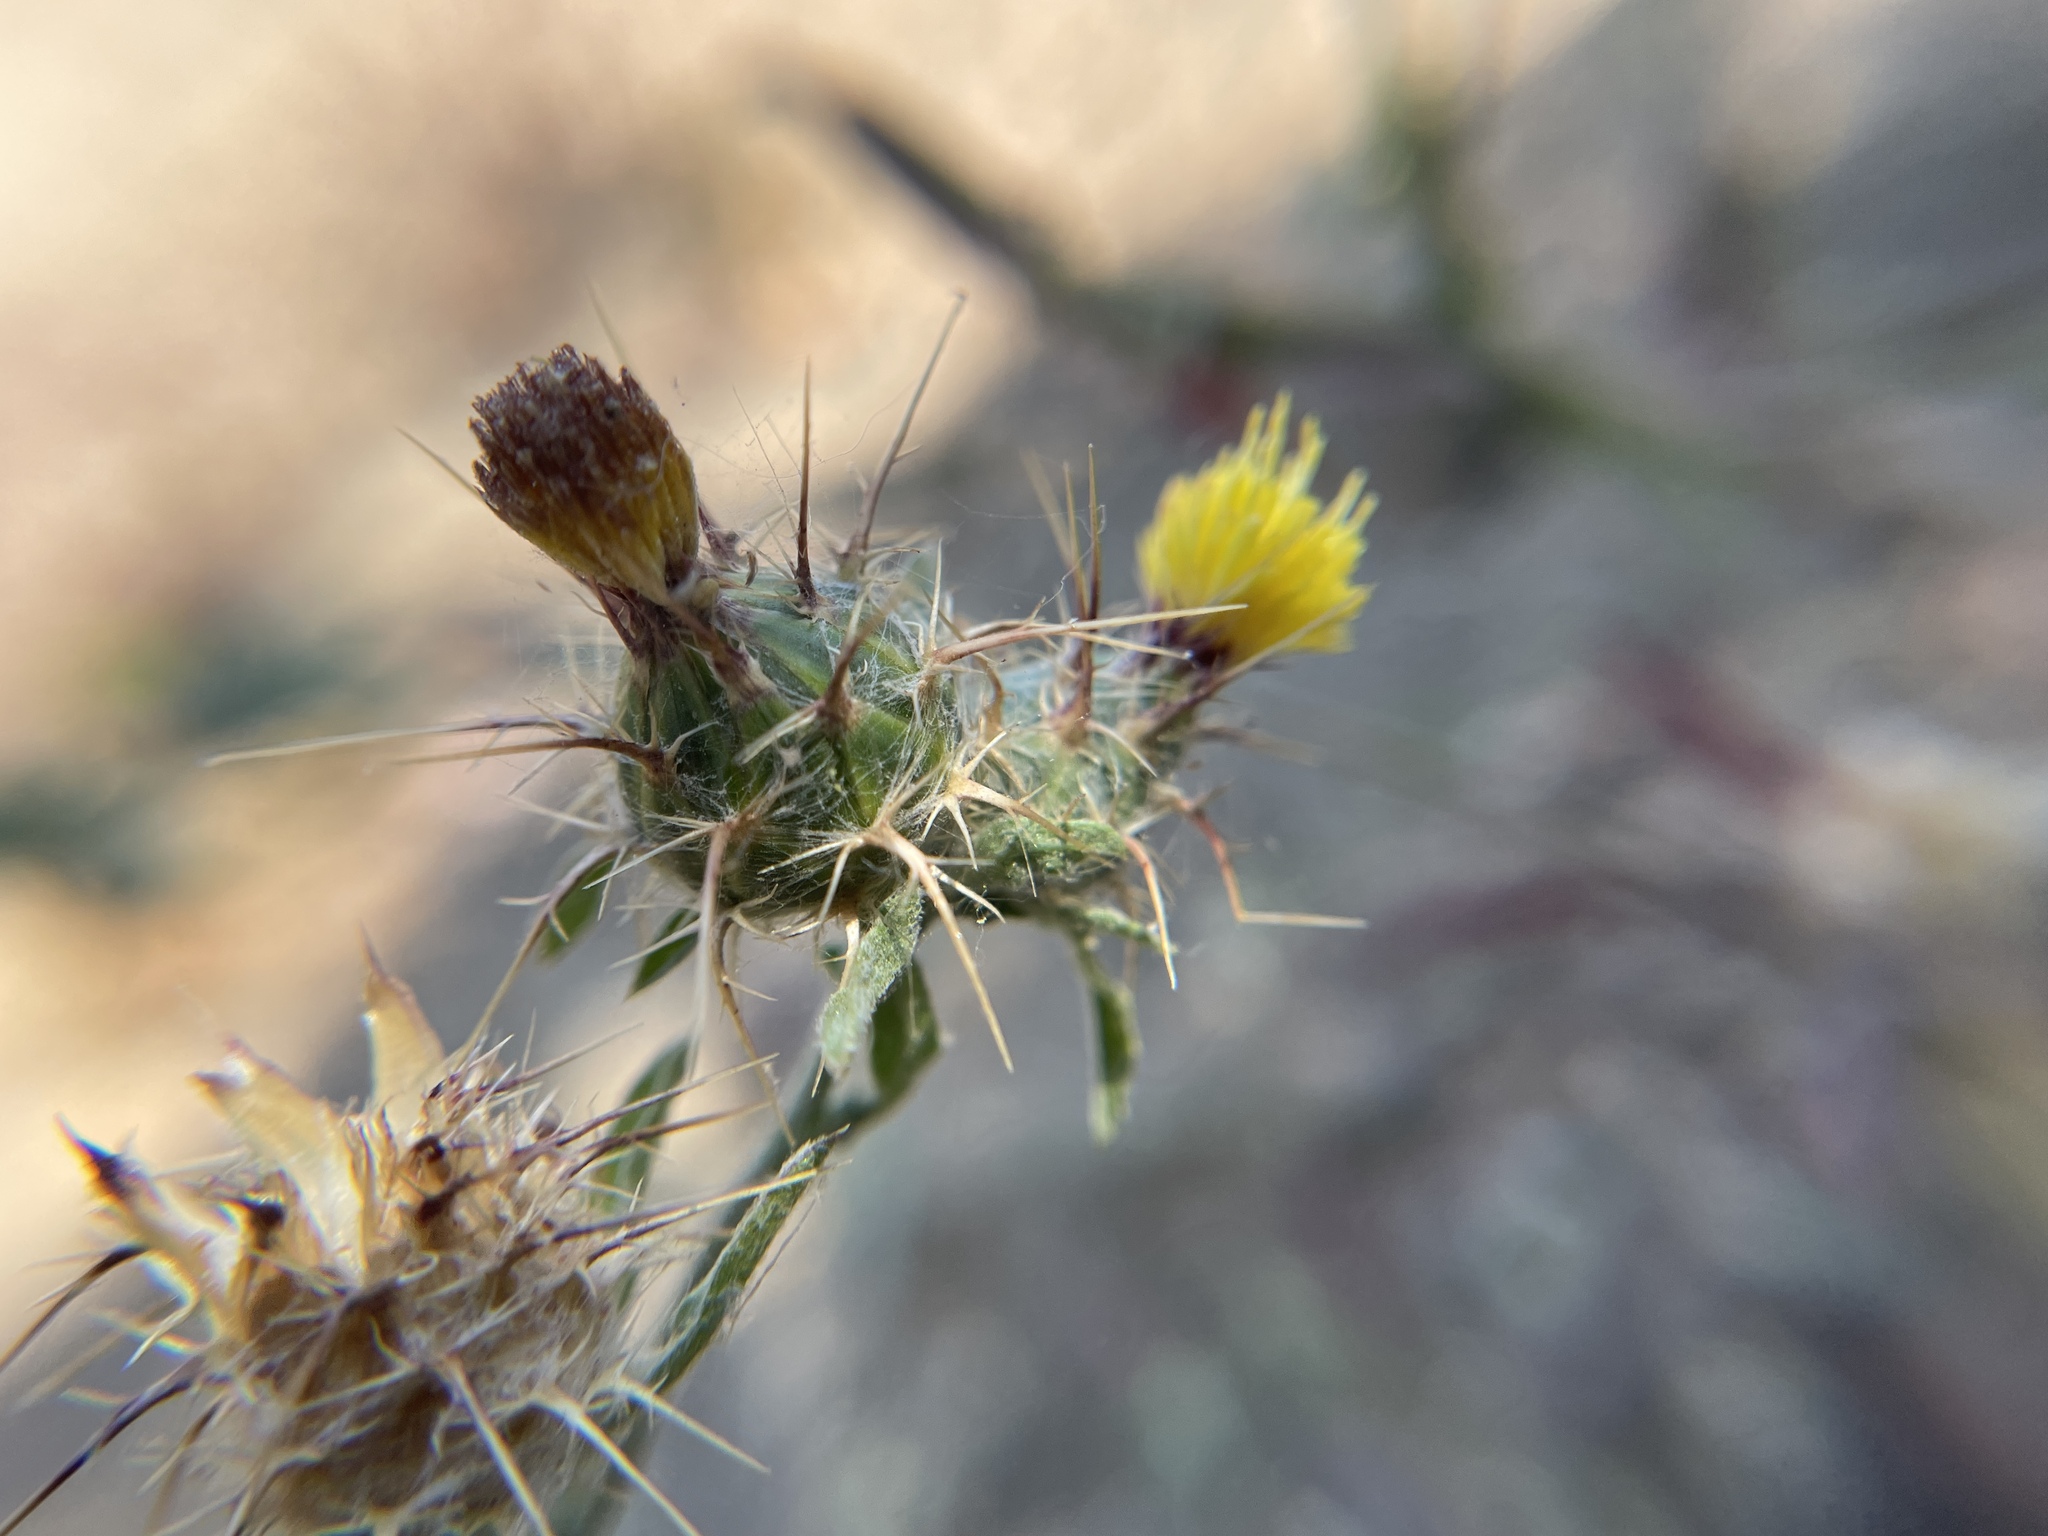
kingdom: Plantae
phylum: Tracheophyta
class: Magnoliopsida
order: Asterales
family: Asteraceae
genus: Centaurea
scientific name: Centaurea melitensis
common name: Maltese star-thistle
